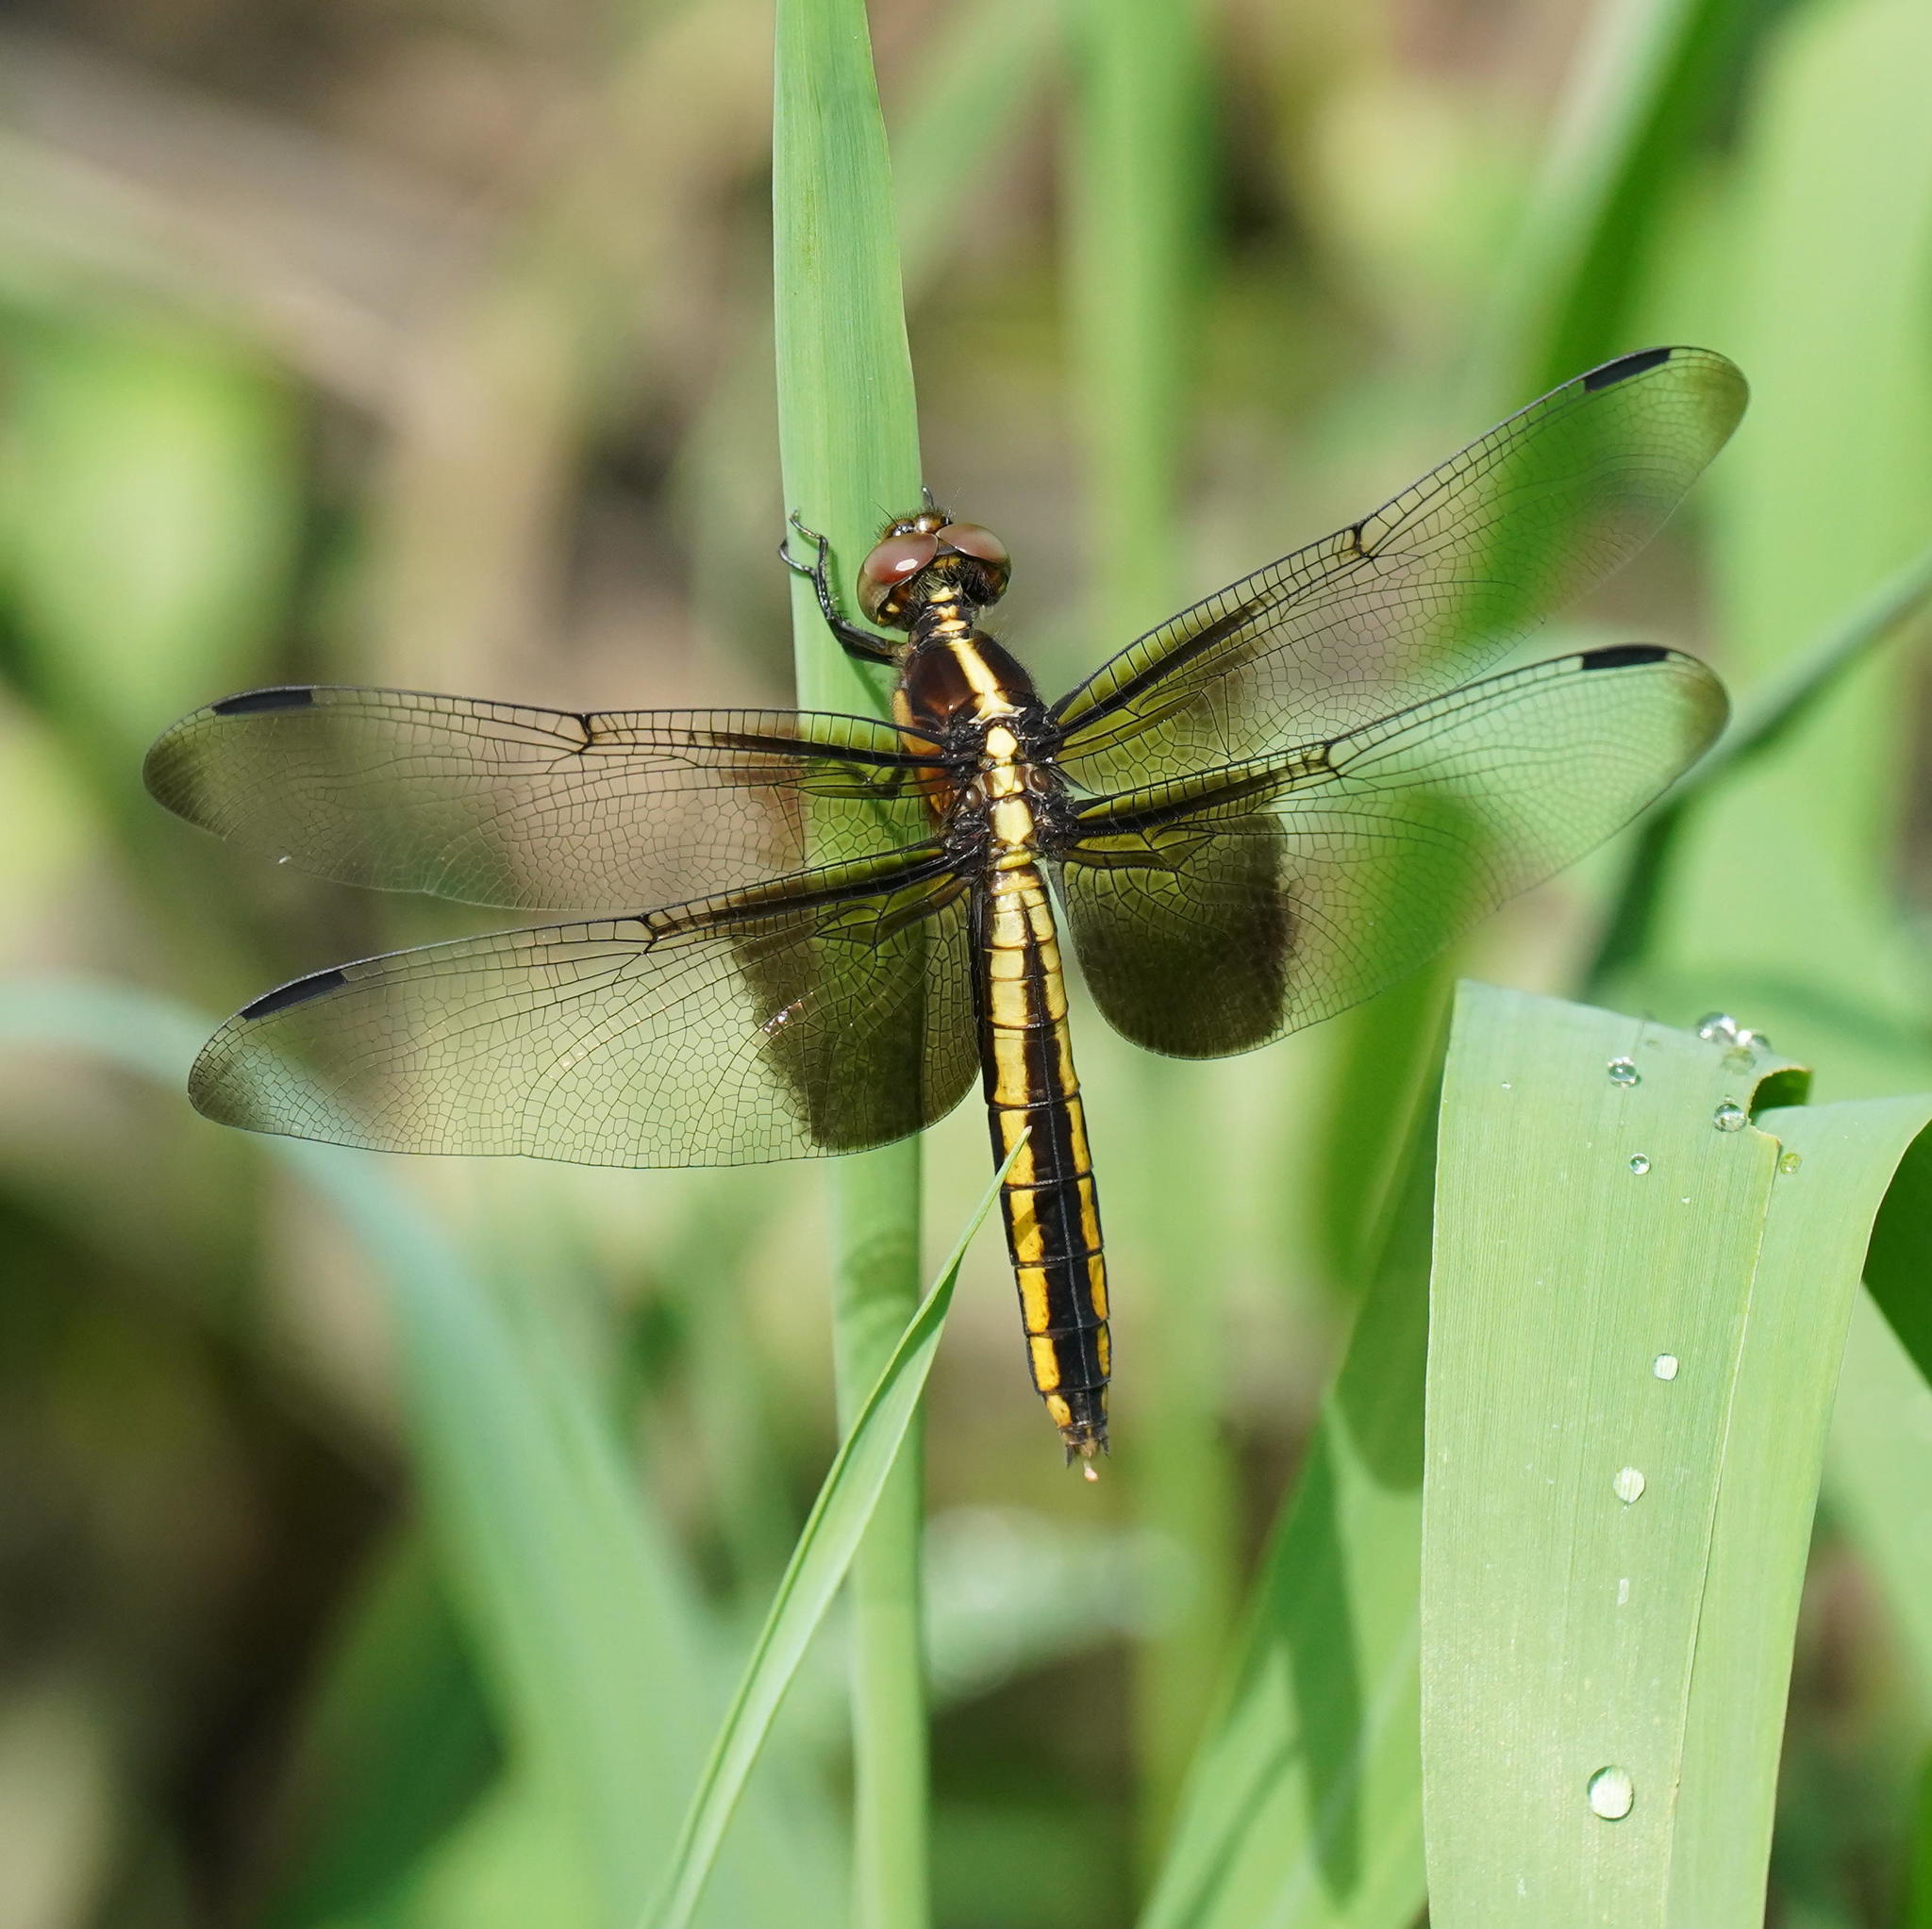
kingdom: Animalia
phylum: Arthropoda
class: Insecta
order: Odonata
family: Libellulidae
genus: Libellula
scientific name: Libellula luctuosa
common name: Widow skimmer
